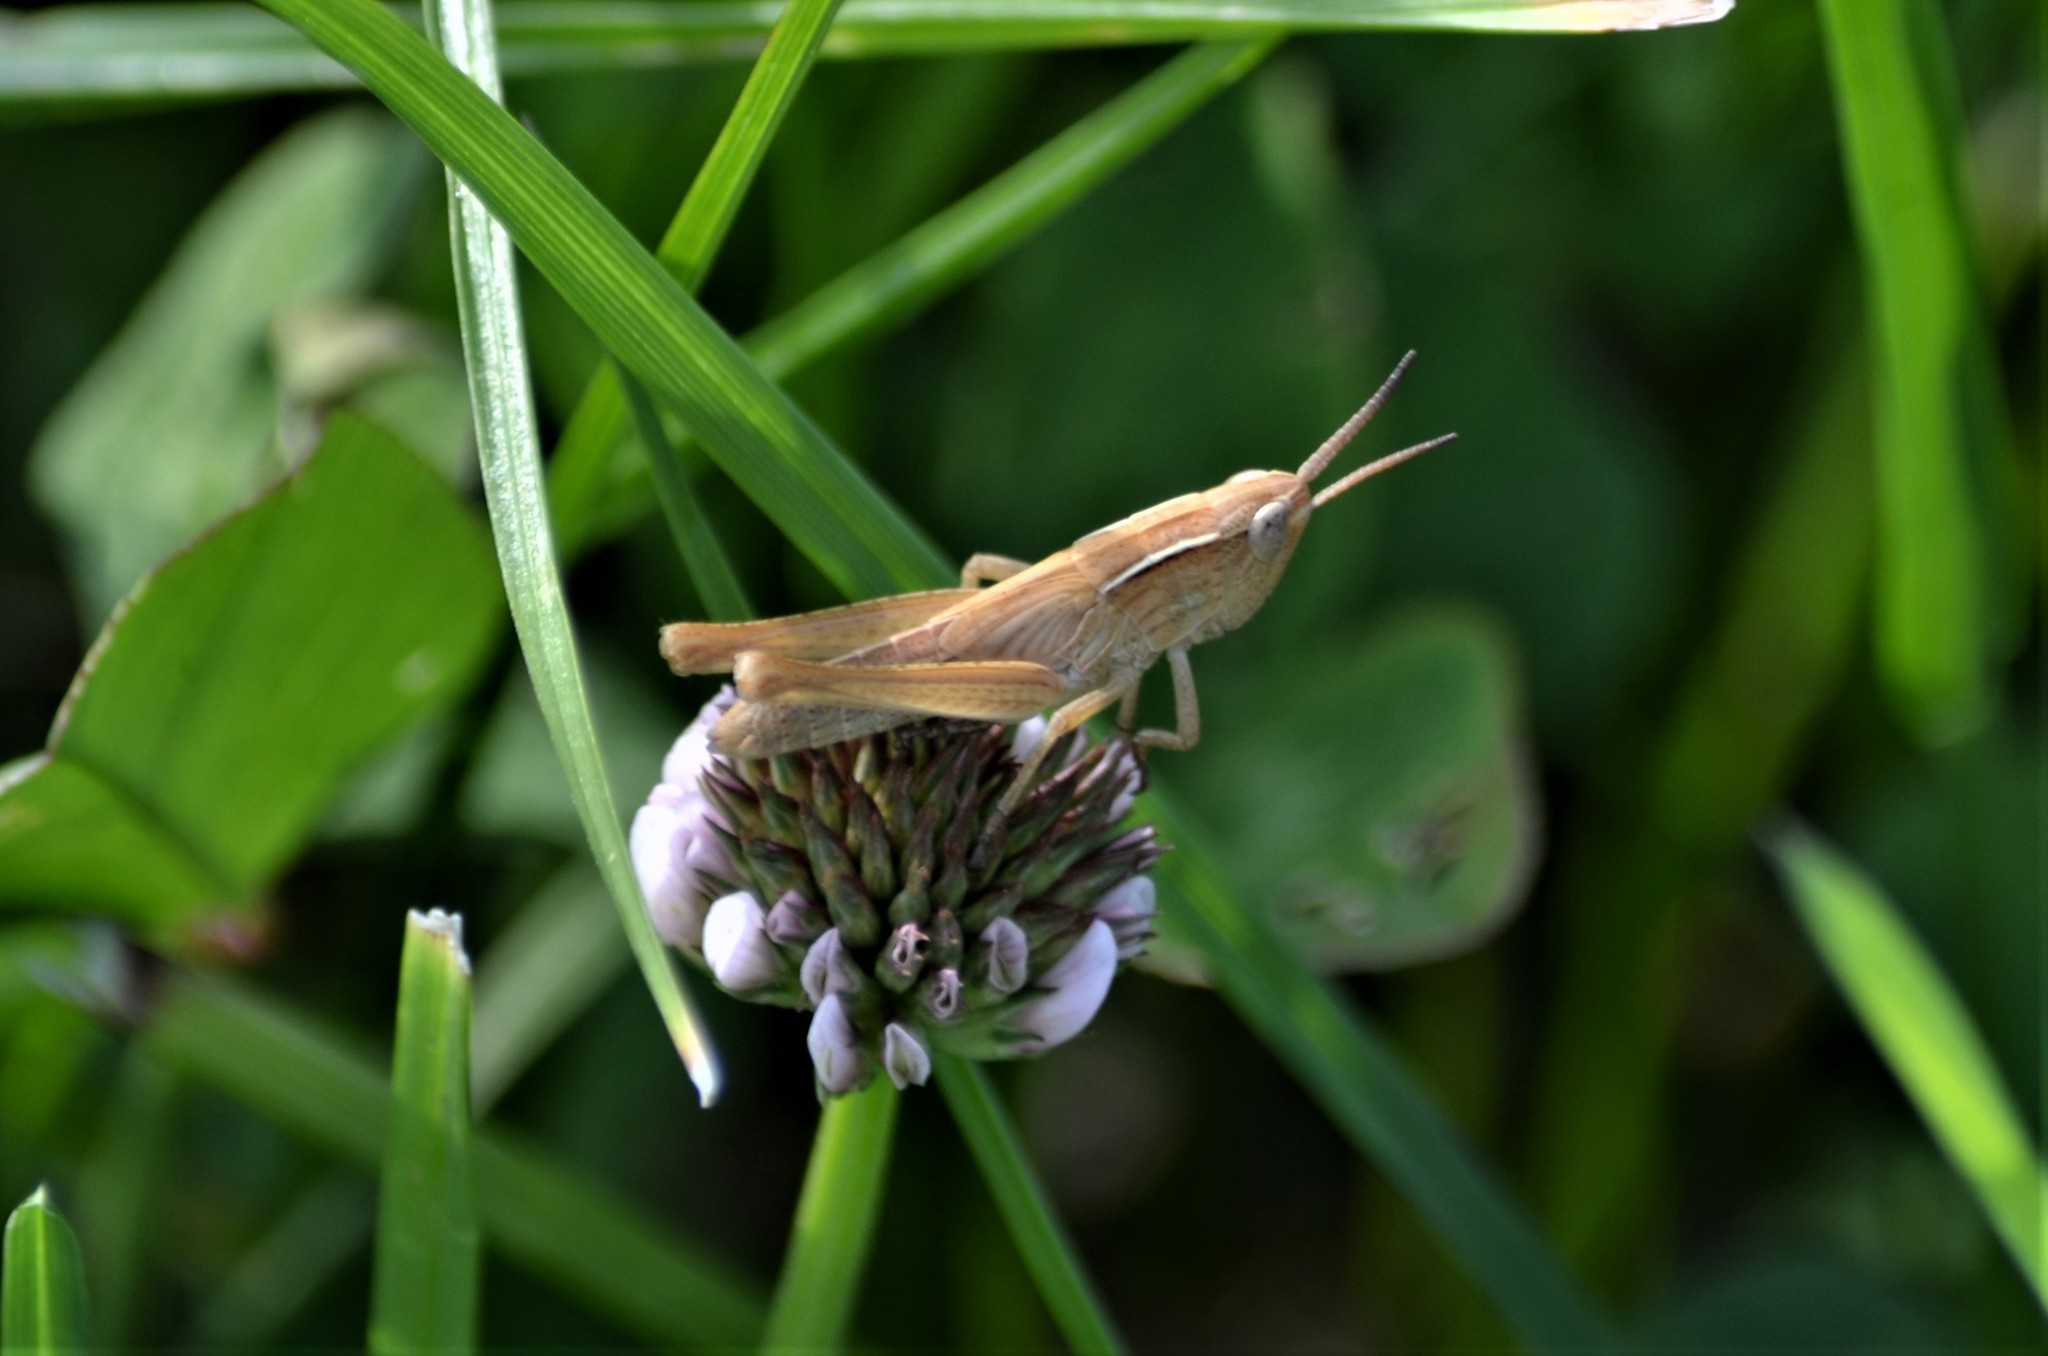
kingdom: Animalia
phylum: Arthropoda
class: Insecta
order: Orthoptera
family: Acrididae
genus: Chorthippus
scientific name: Chorthippus albomarginatus
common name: Lesser marsh grasshopper
